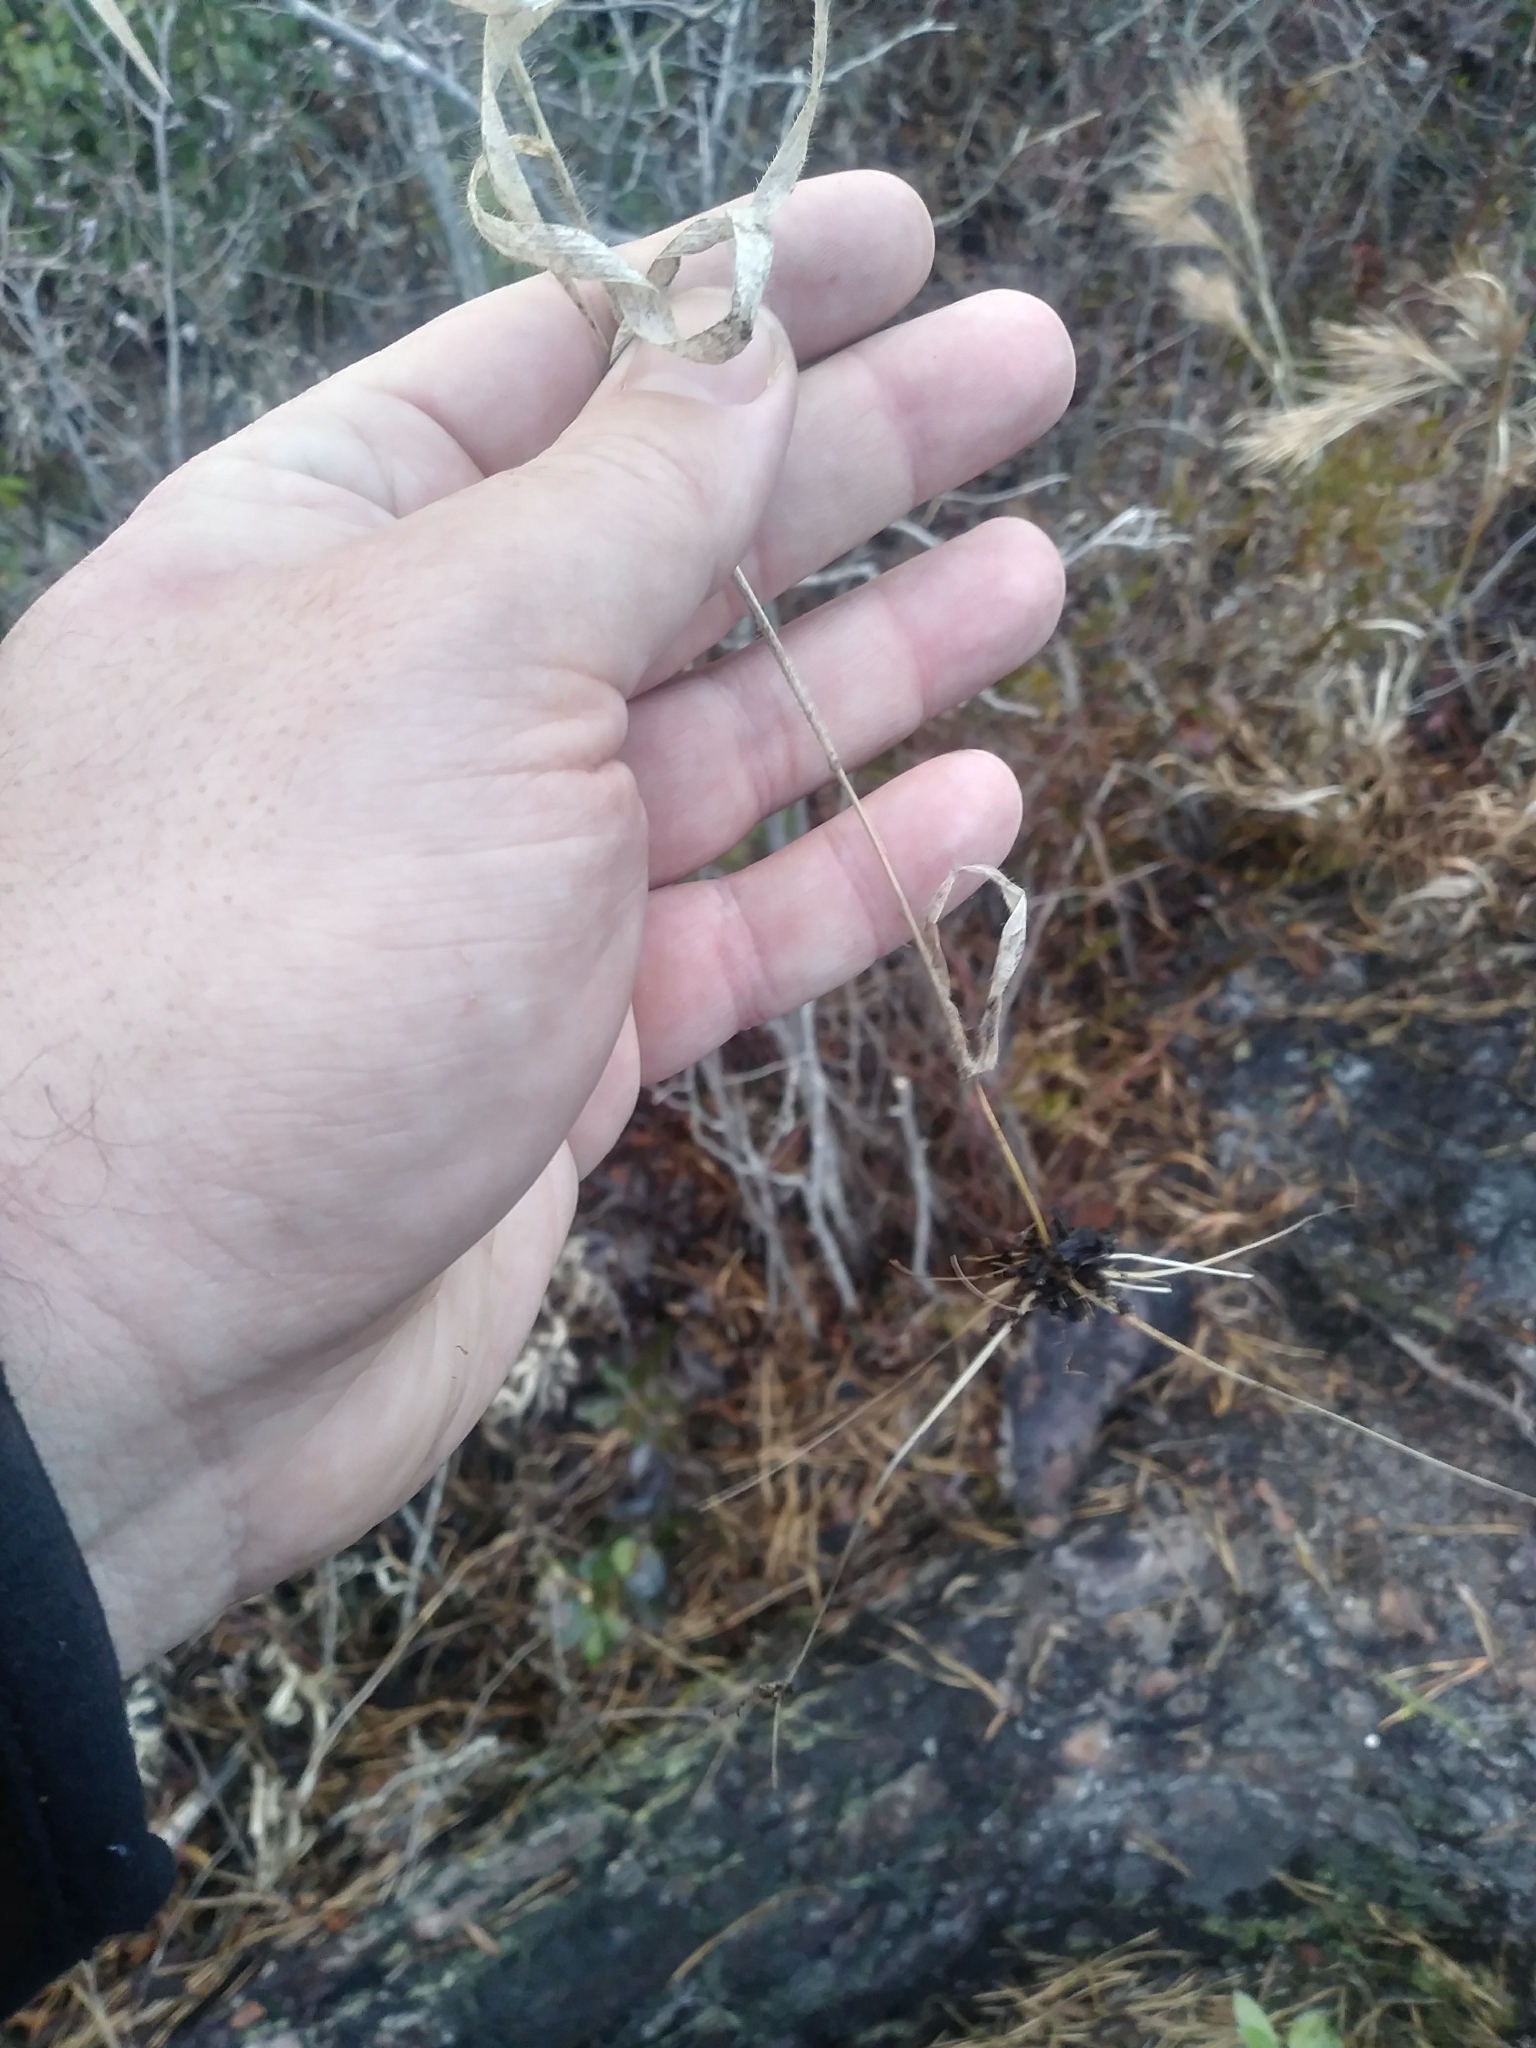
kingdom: Plantae
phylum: Tracheophyta
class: Liliopsida
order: Poales
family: Poaceae
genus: Amphicarpum
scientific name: Amphicarpum amphicarpon
